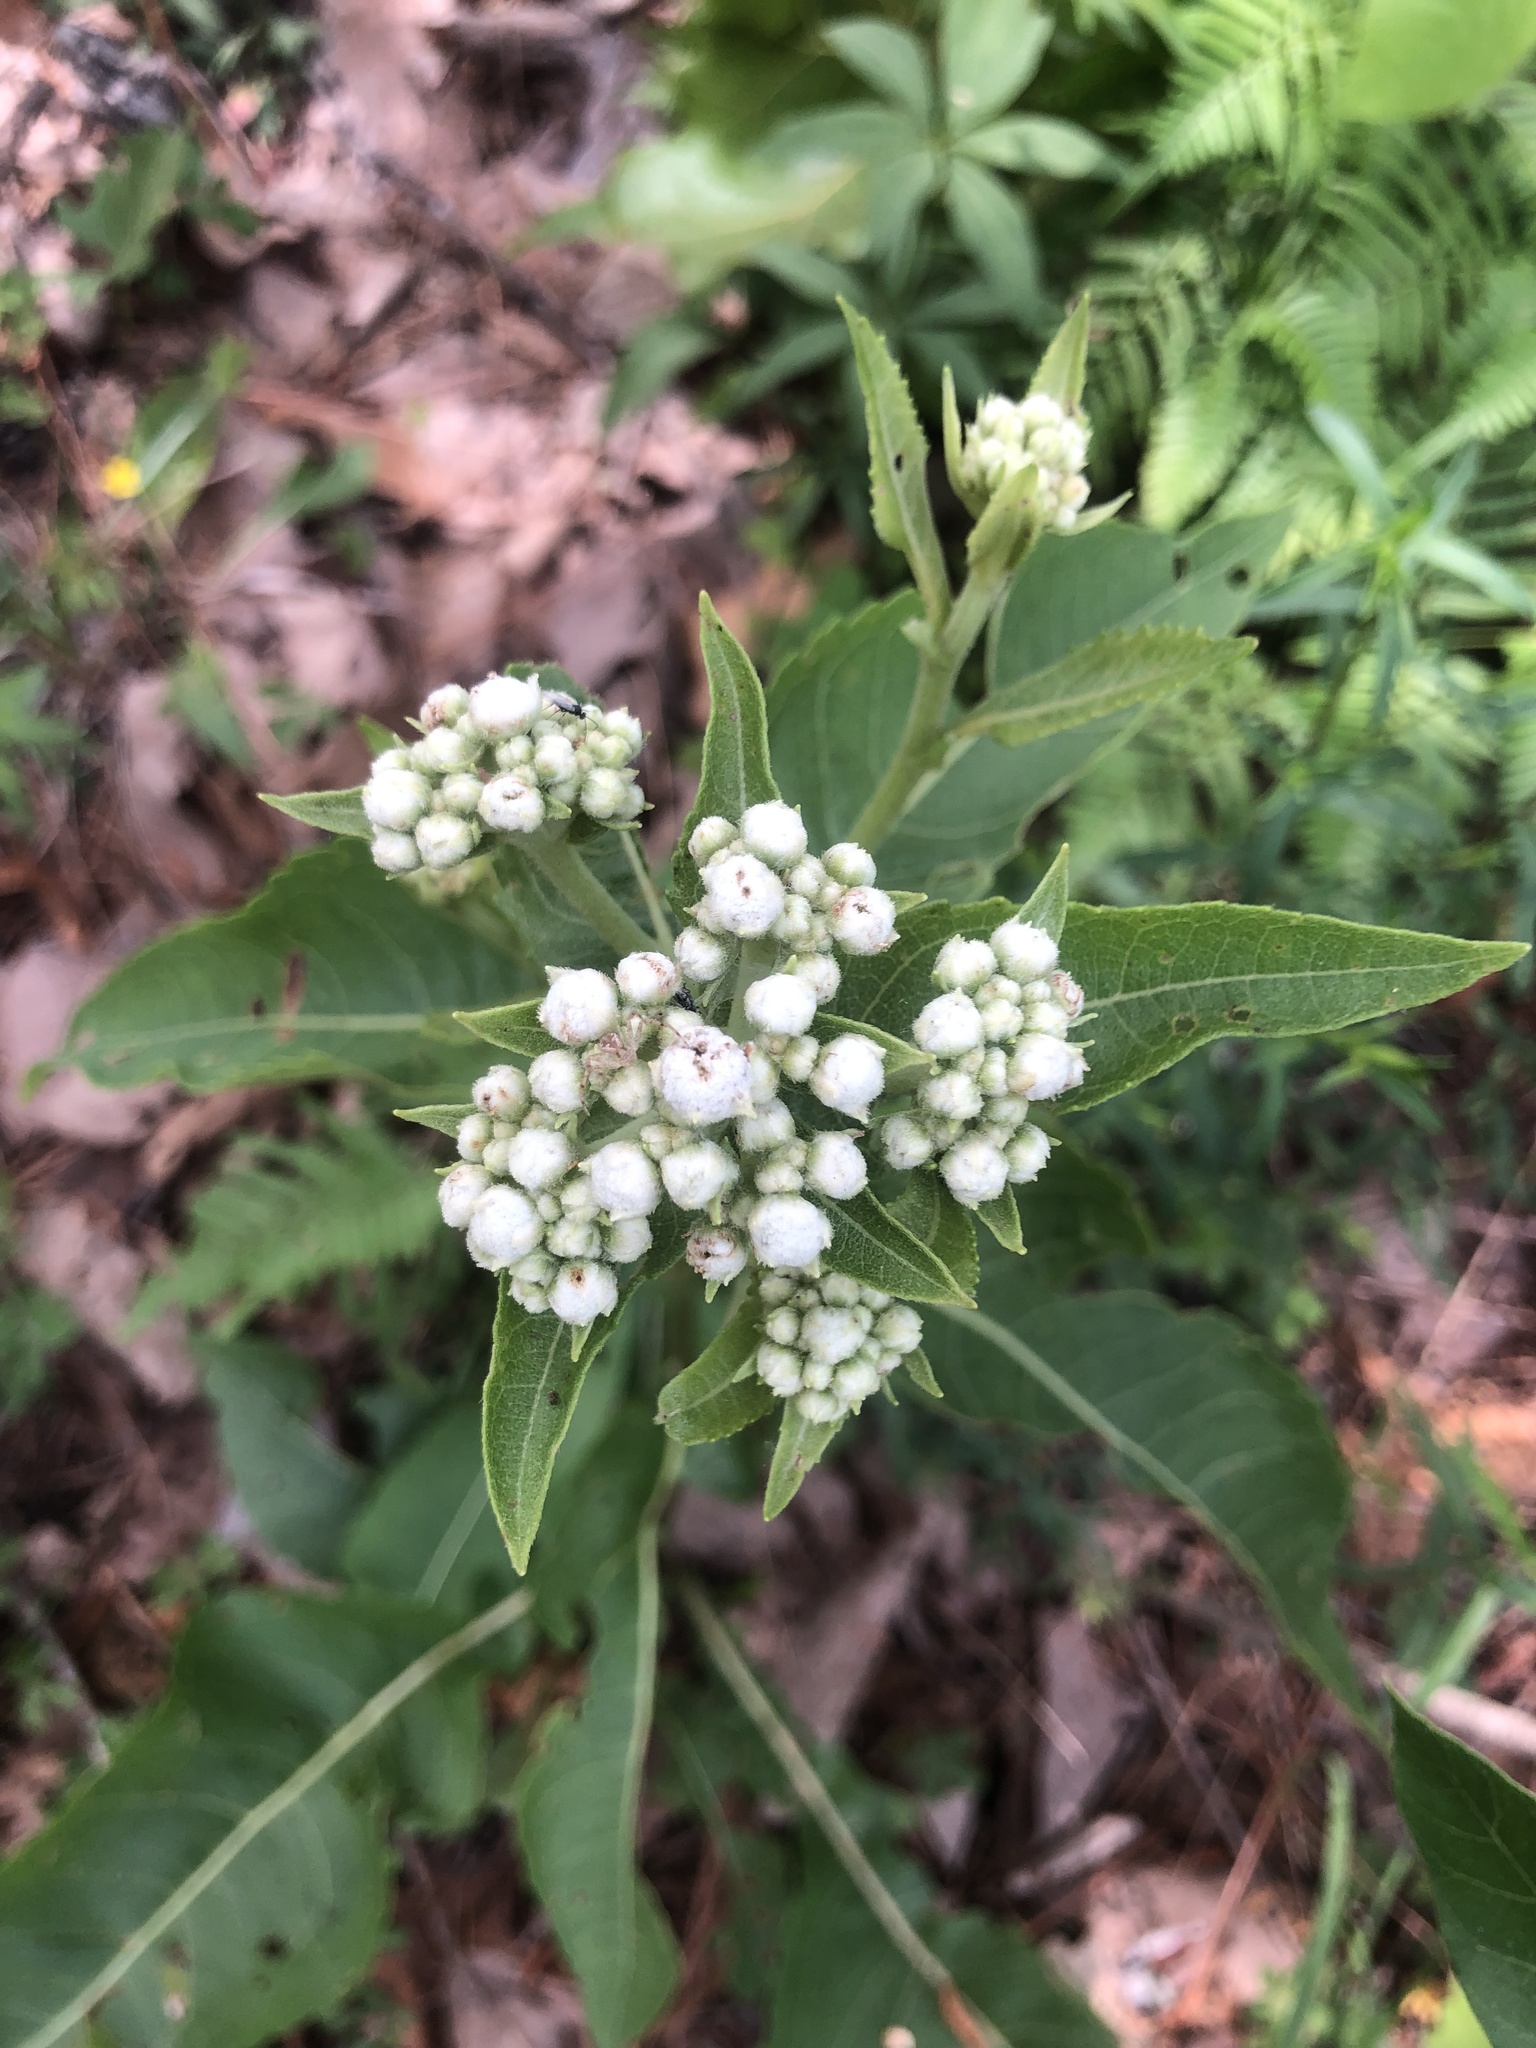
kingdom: Plantae
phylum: Tracheophyta
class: Magnoliopsida
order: Asterales
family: Asteraceae
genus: Parthenium
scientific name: Parthenium integrifolium
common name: American feverfew
